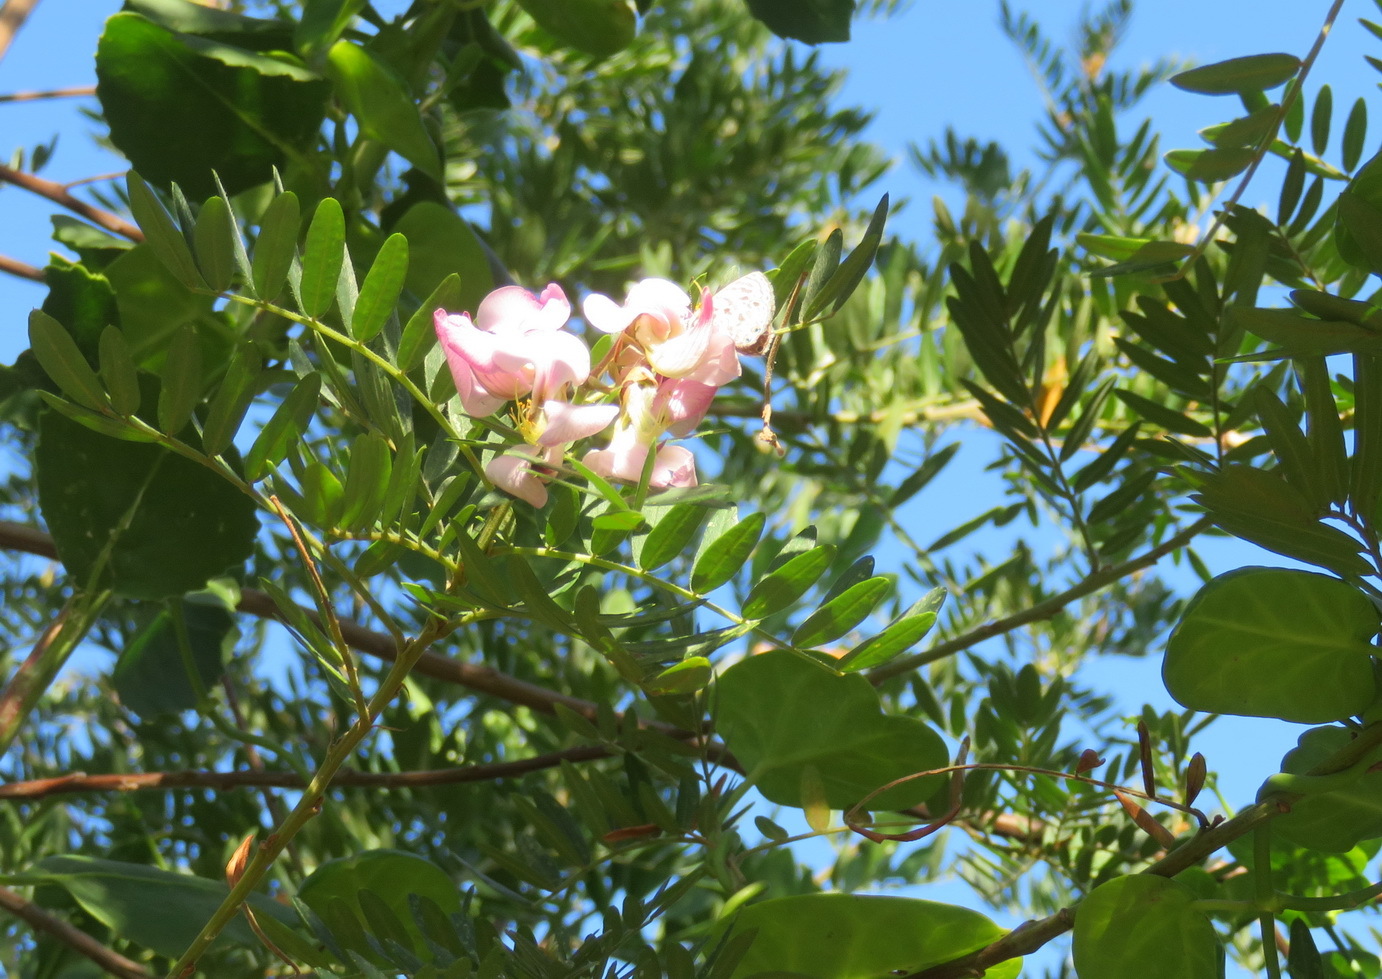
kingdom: Plantae
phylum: Tracheophyta
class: Magnoliopsida
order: Fabales
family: Fabaceae
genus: Virgilia
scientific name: Virgilia divaricata
